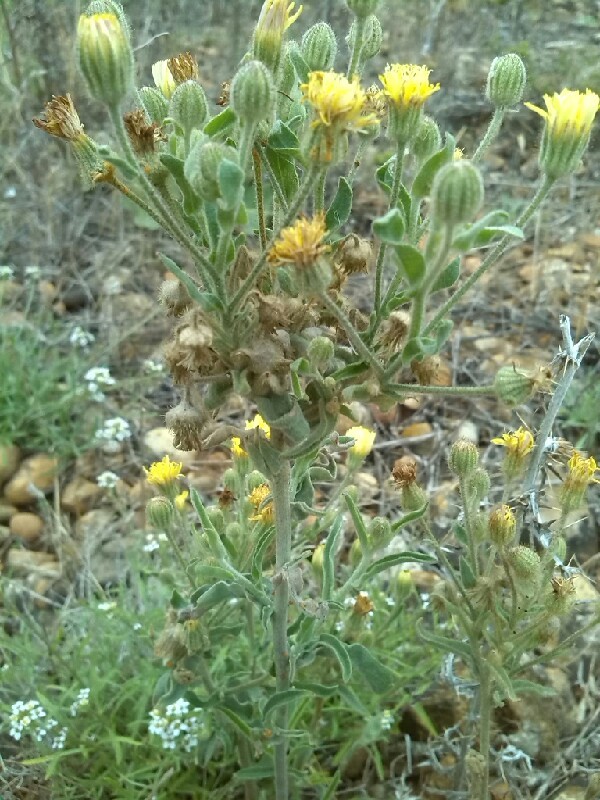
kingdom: Plantae
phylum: Tracheophyta
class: Magnoliopsida
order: Asterales
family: Asteraceae
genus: Andryala
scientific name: Andryala integrifolia
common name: Common andryala
